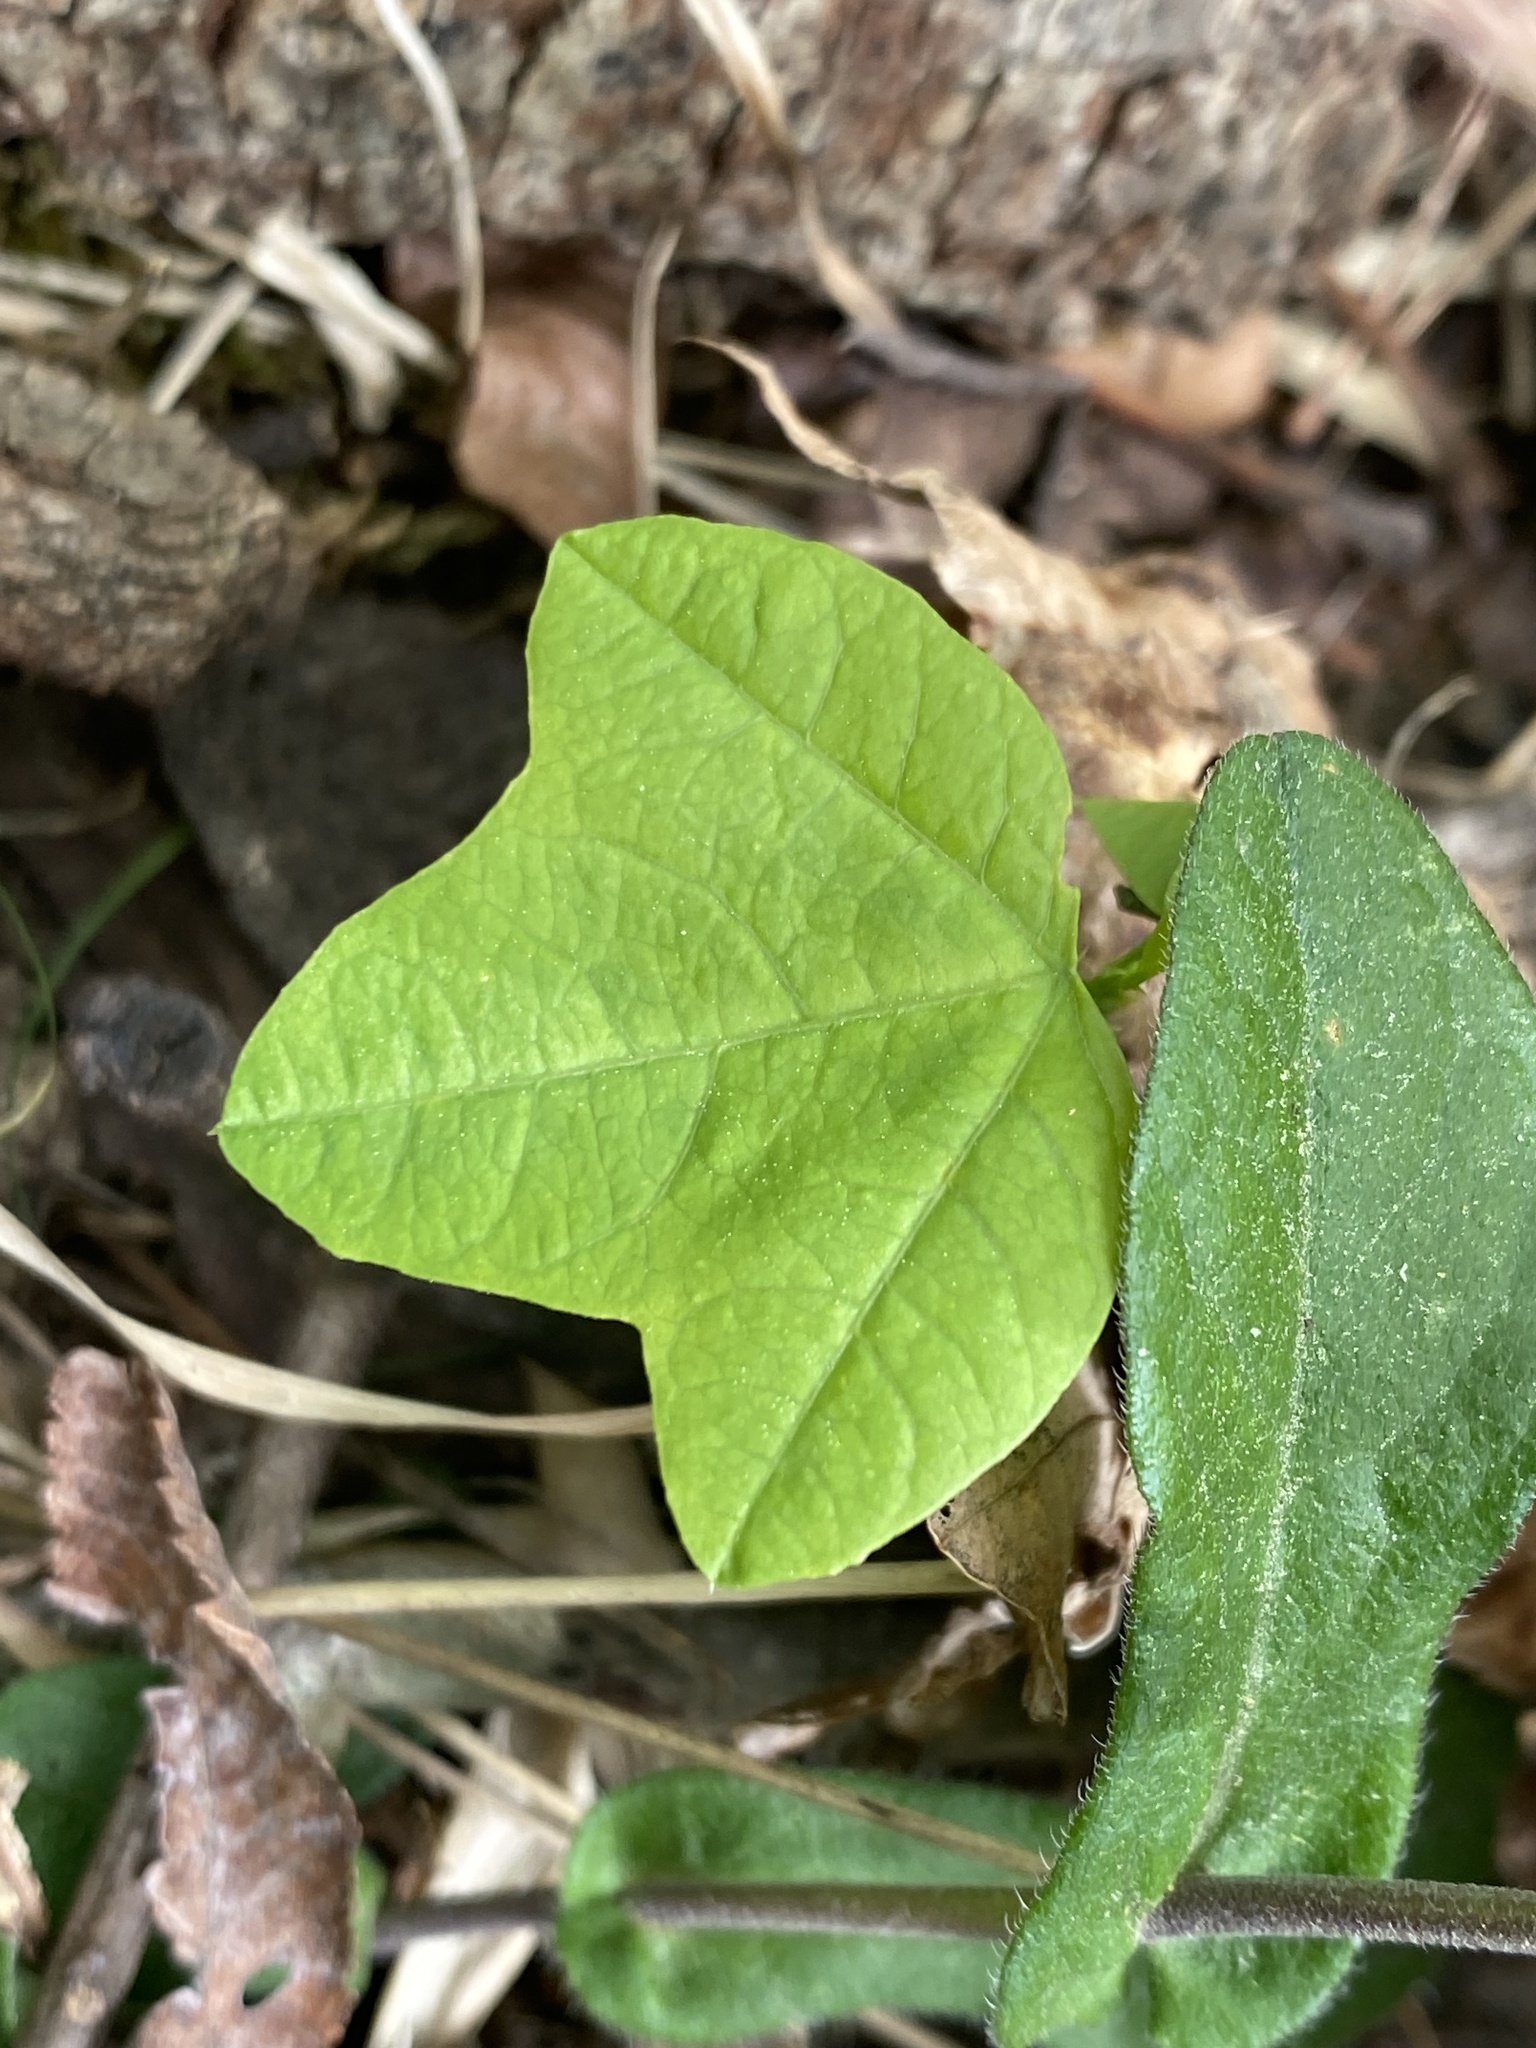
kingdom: Plantae
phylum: Tracheophyta
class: Magnoliopsida
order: Malpighiales
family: Passifloraceae
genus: Passiflora
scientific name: Passiflora lutea
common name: Yellow passionflower
